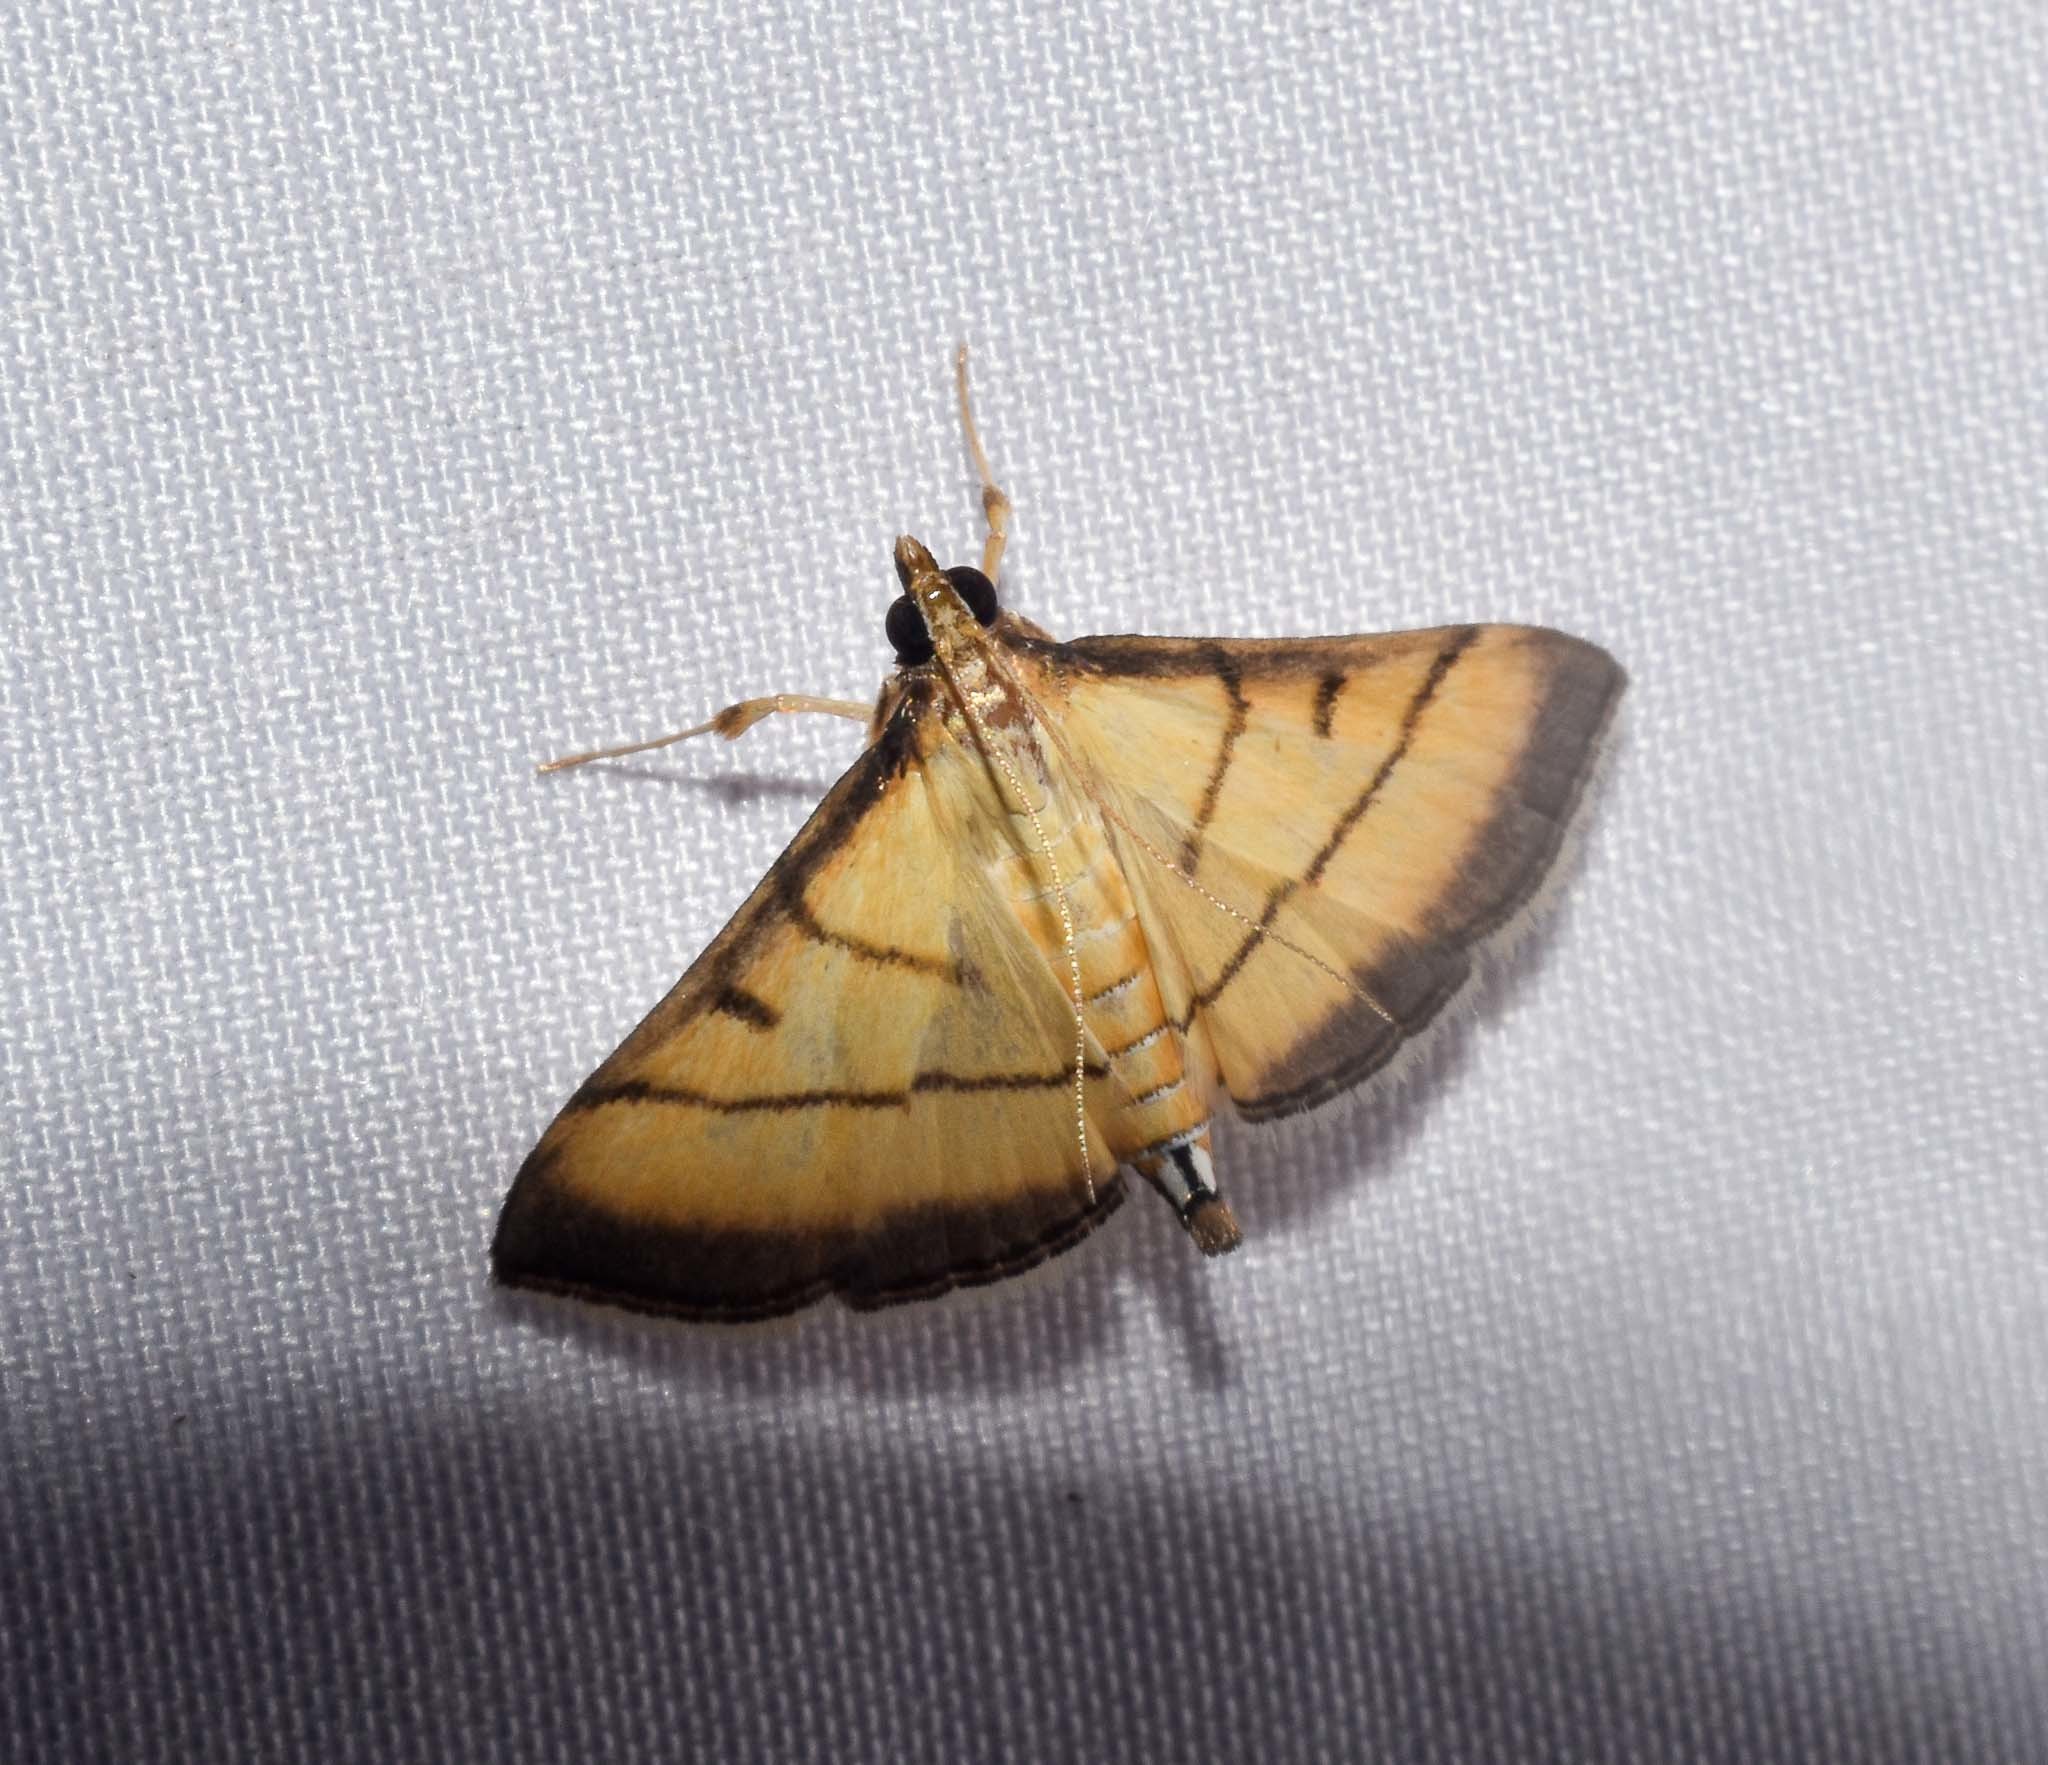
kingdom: Animalia
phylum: Arthropoda
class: Insecta
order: Lepidoptera
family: Crambidae
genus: Cnaphalocrocis
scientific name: Cnaphalocrocis medinalis
